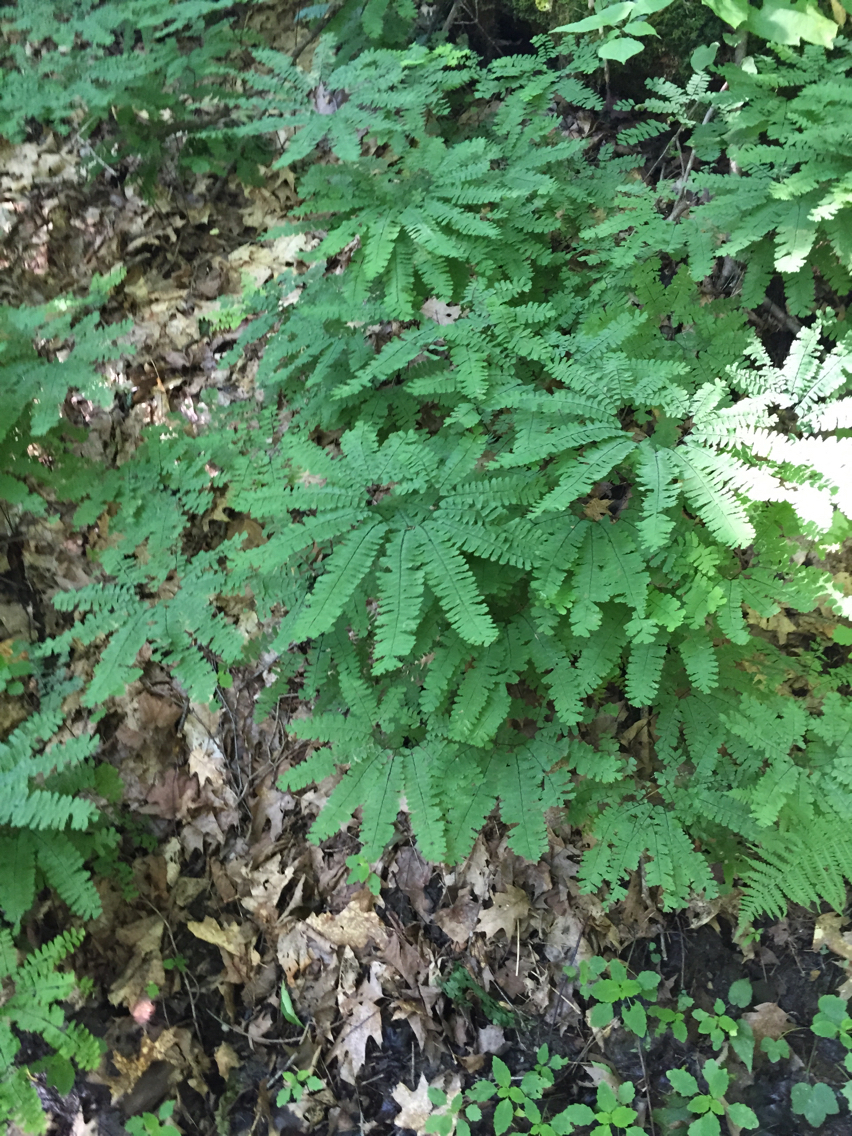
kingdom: Plantae
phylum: Tracheophyta
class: Polypodiopsida
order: Polypodiales
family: Pteridaceae
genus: Adiantum
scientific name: Adiantum pedatum
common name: Five-finger fern
